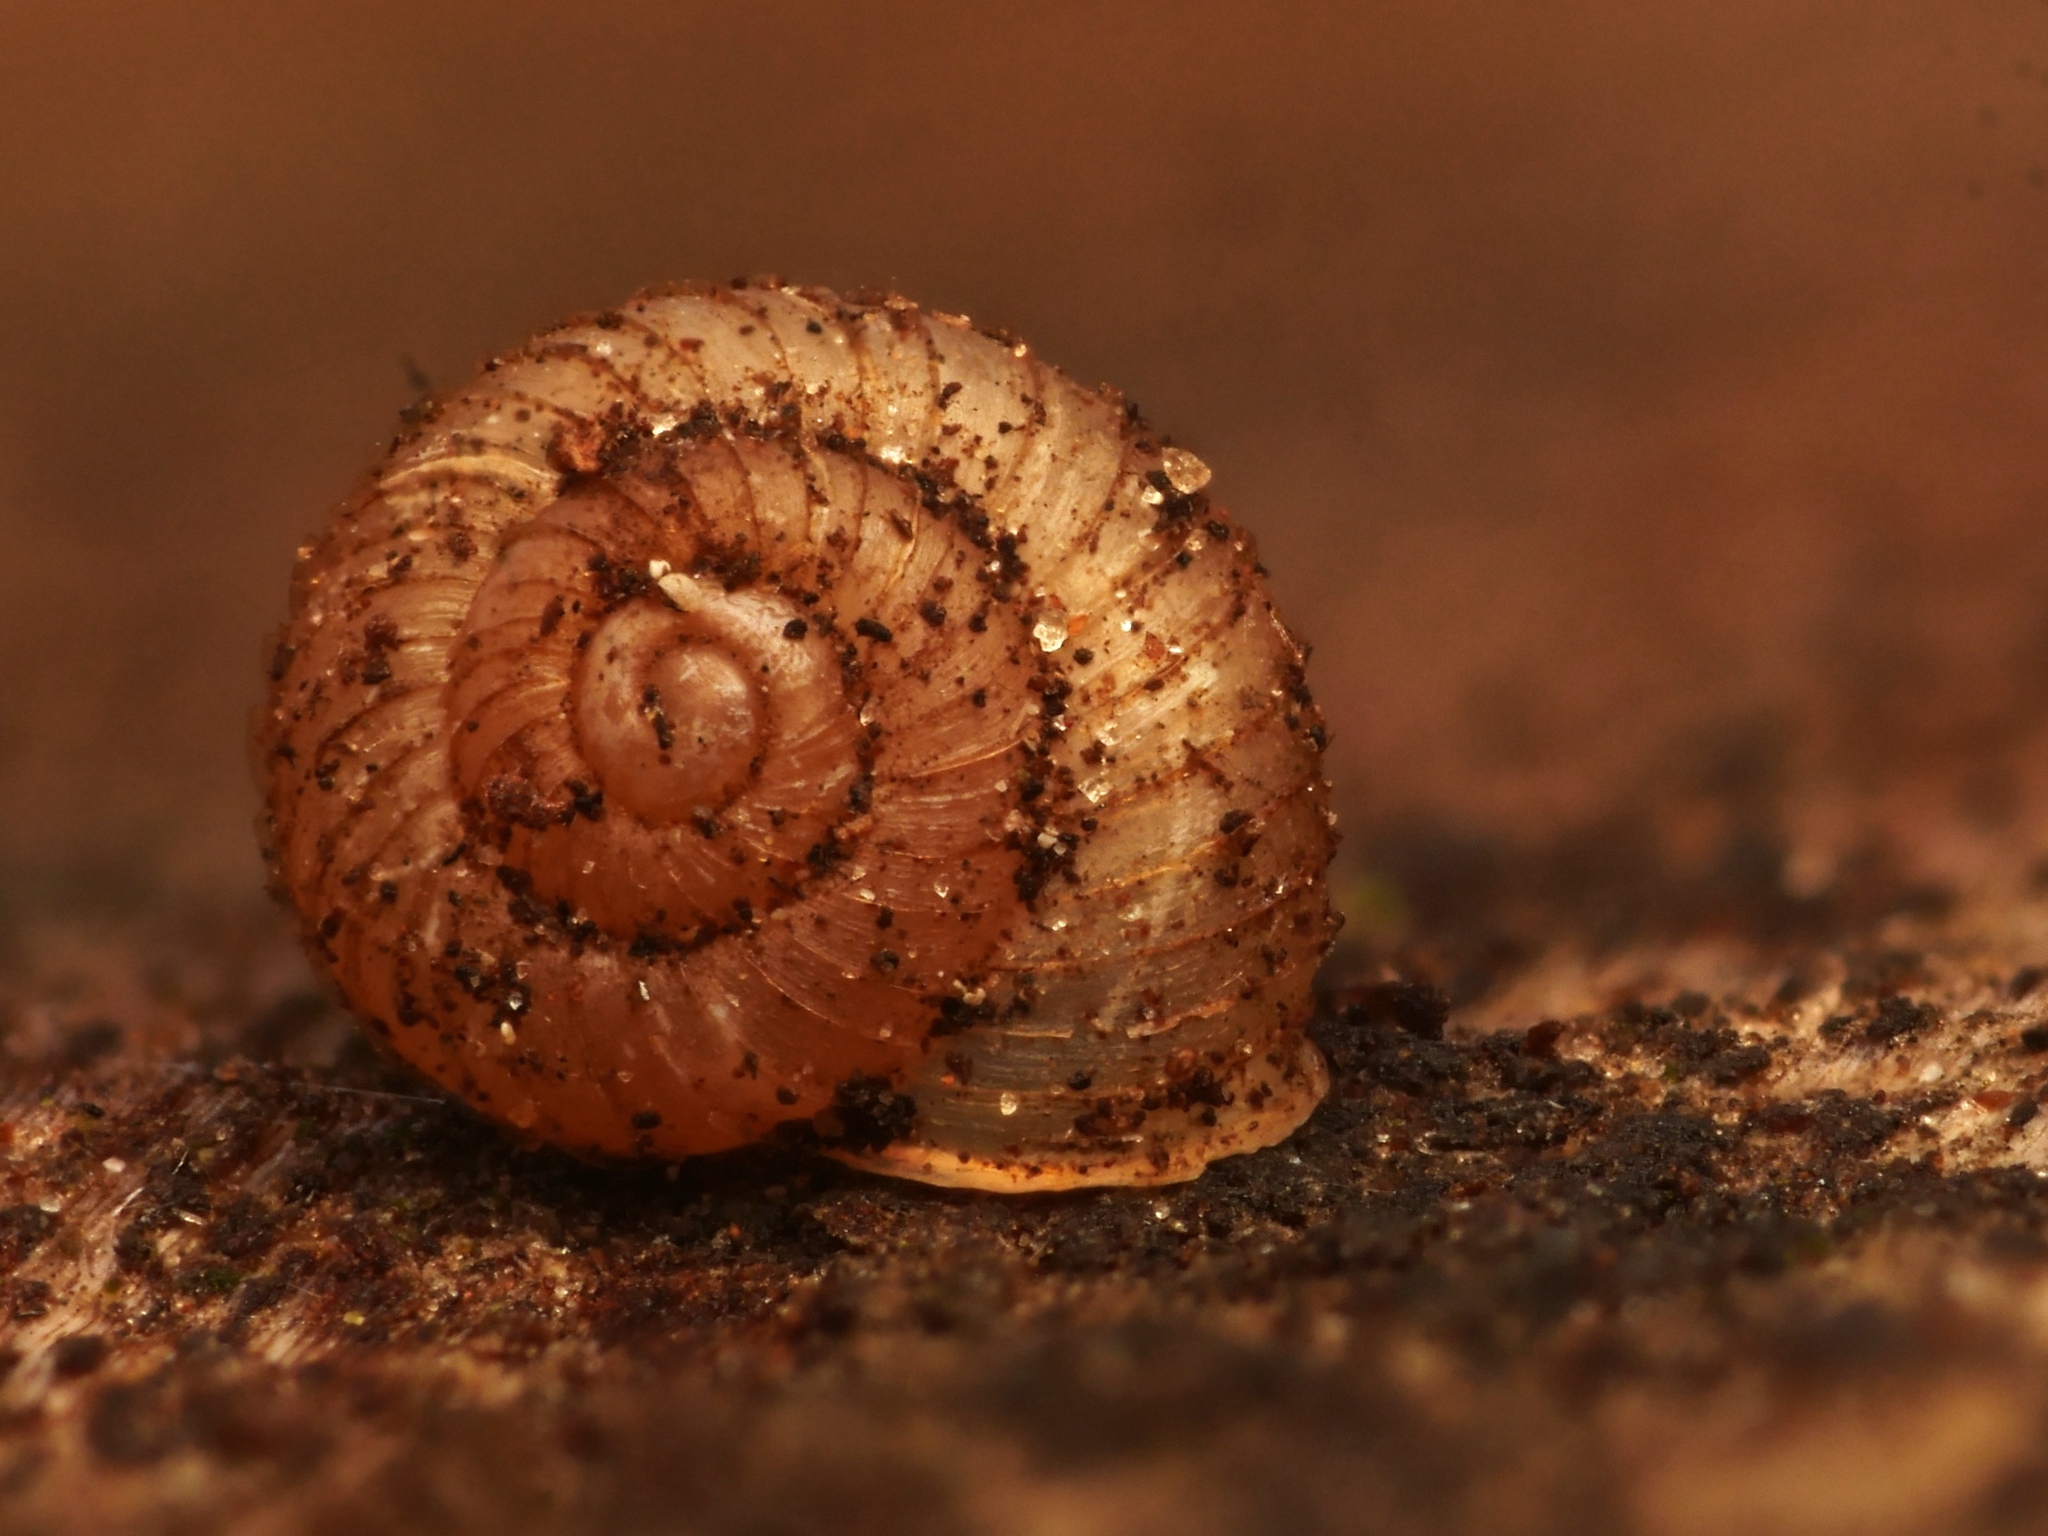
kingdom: Animalia
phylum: Mollusca
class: Gastropoda
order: Stylommatophora
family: Valloniidae
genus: Vallonia
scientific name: Vallonia costata
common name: Ribbed grass snail
